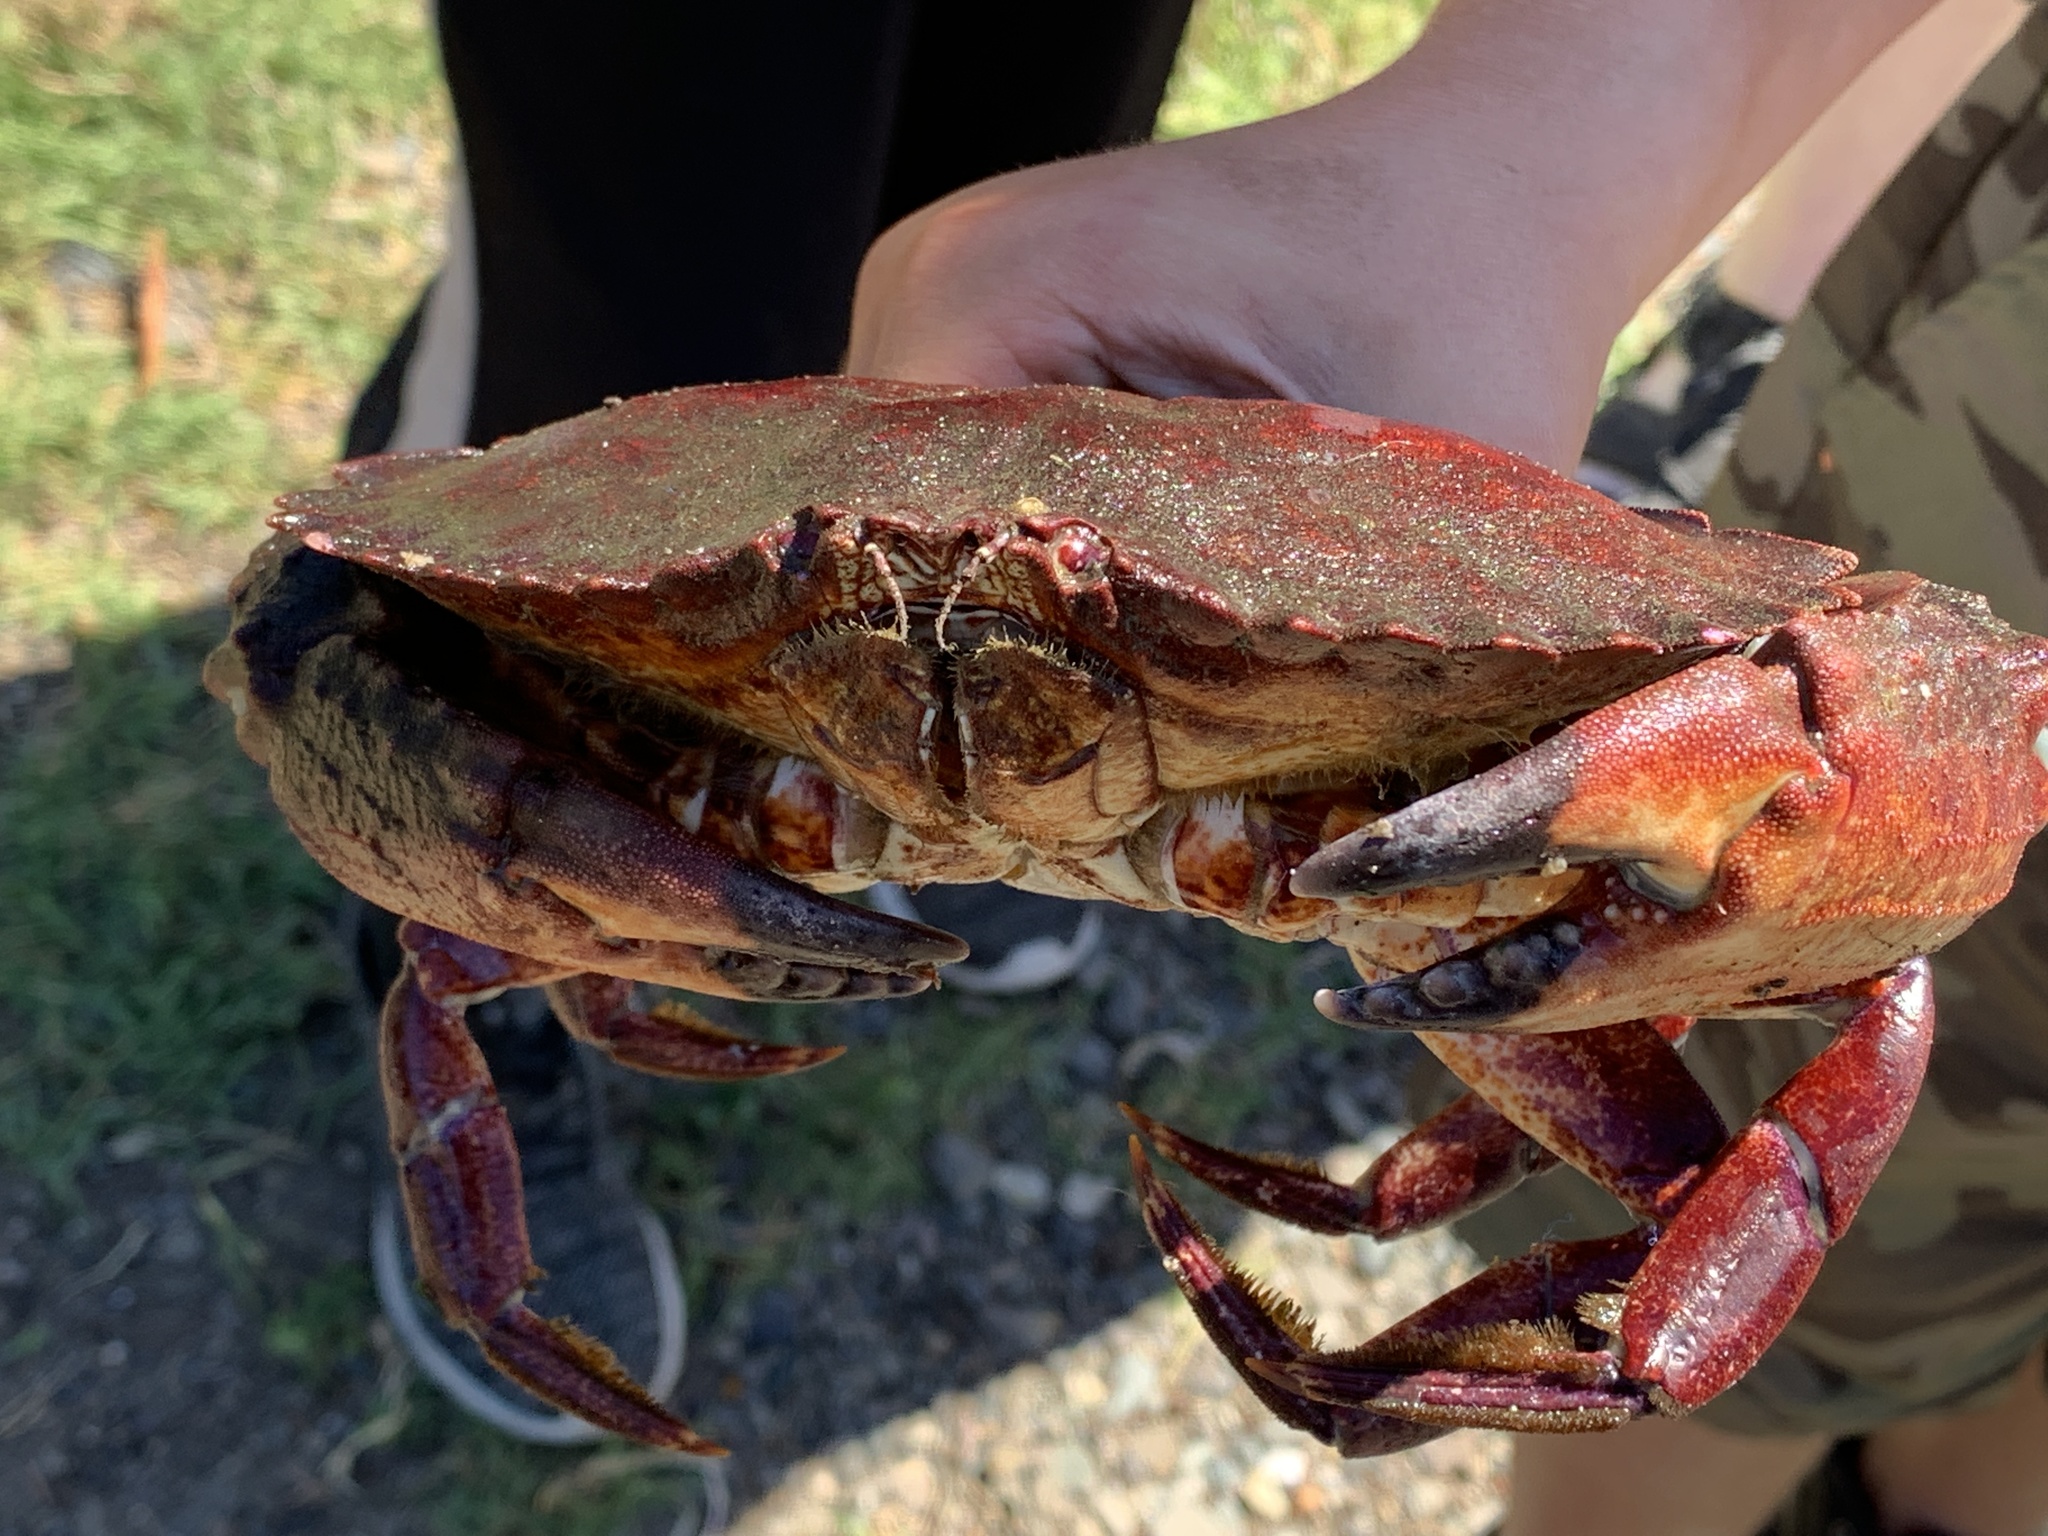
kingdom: Animalia
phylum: Arthropoda
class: Malacostraca
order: Decapoda
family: Cancridae
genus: Cancer
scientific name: Cancer productus
